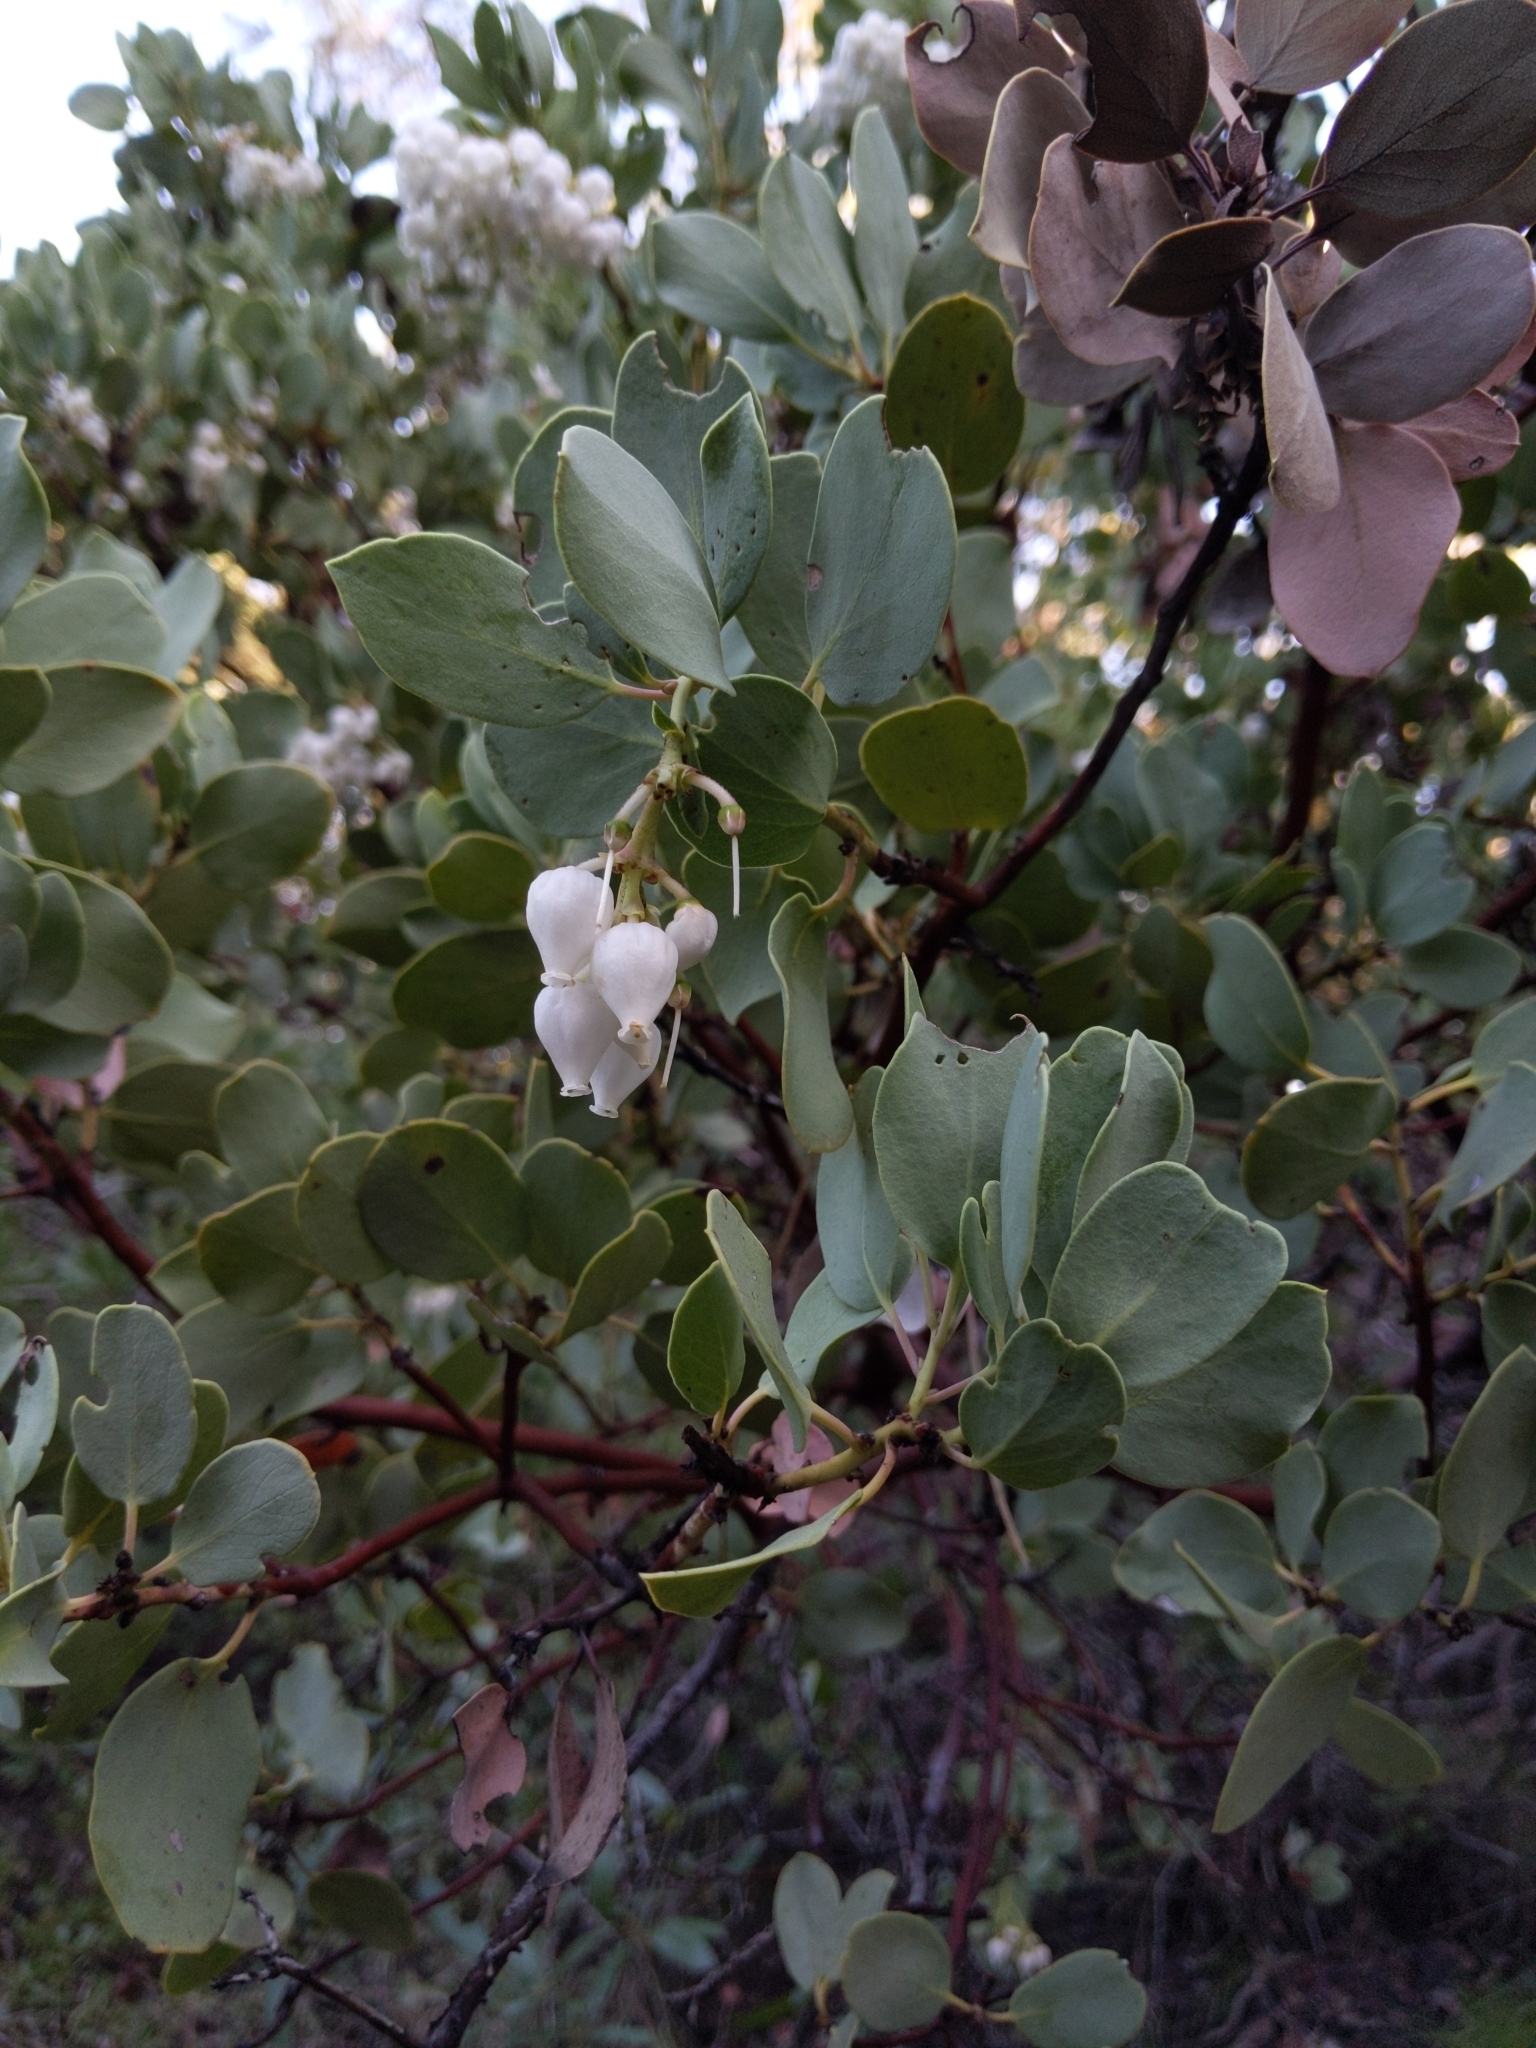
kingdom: Plantae
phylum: Tracheophyta
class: Magnoliopsida
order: Ericales
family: Ericaceae
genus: Arctostaphylos
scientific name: Arctostaphylos glauca
